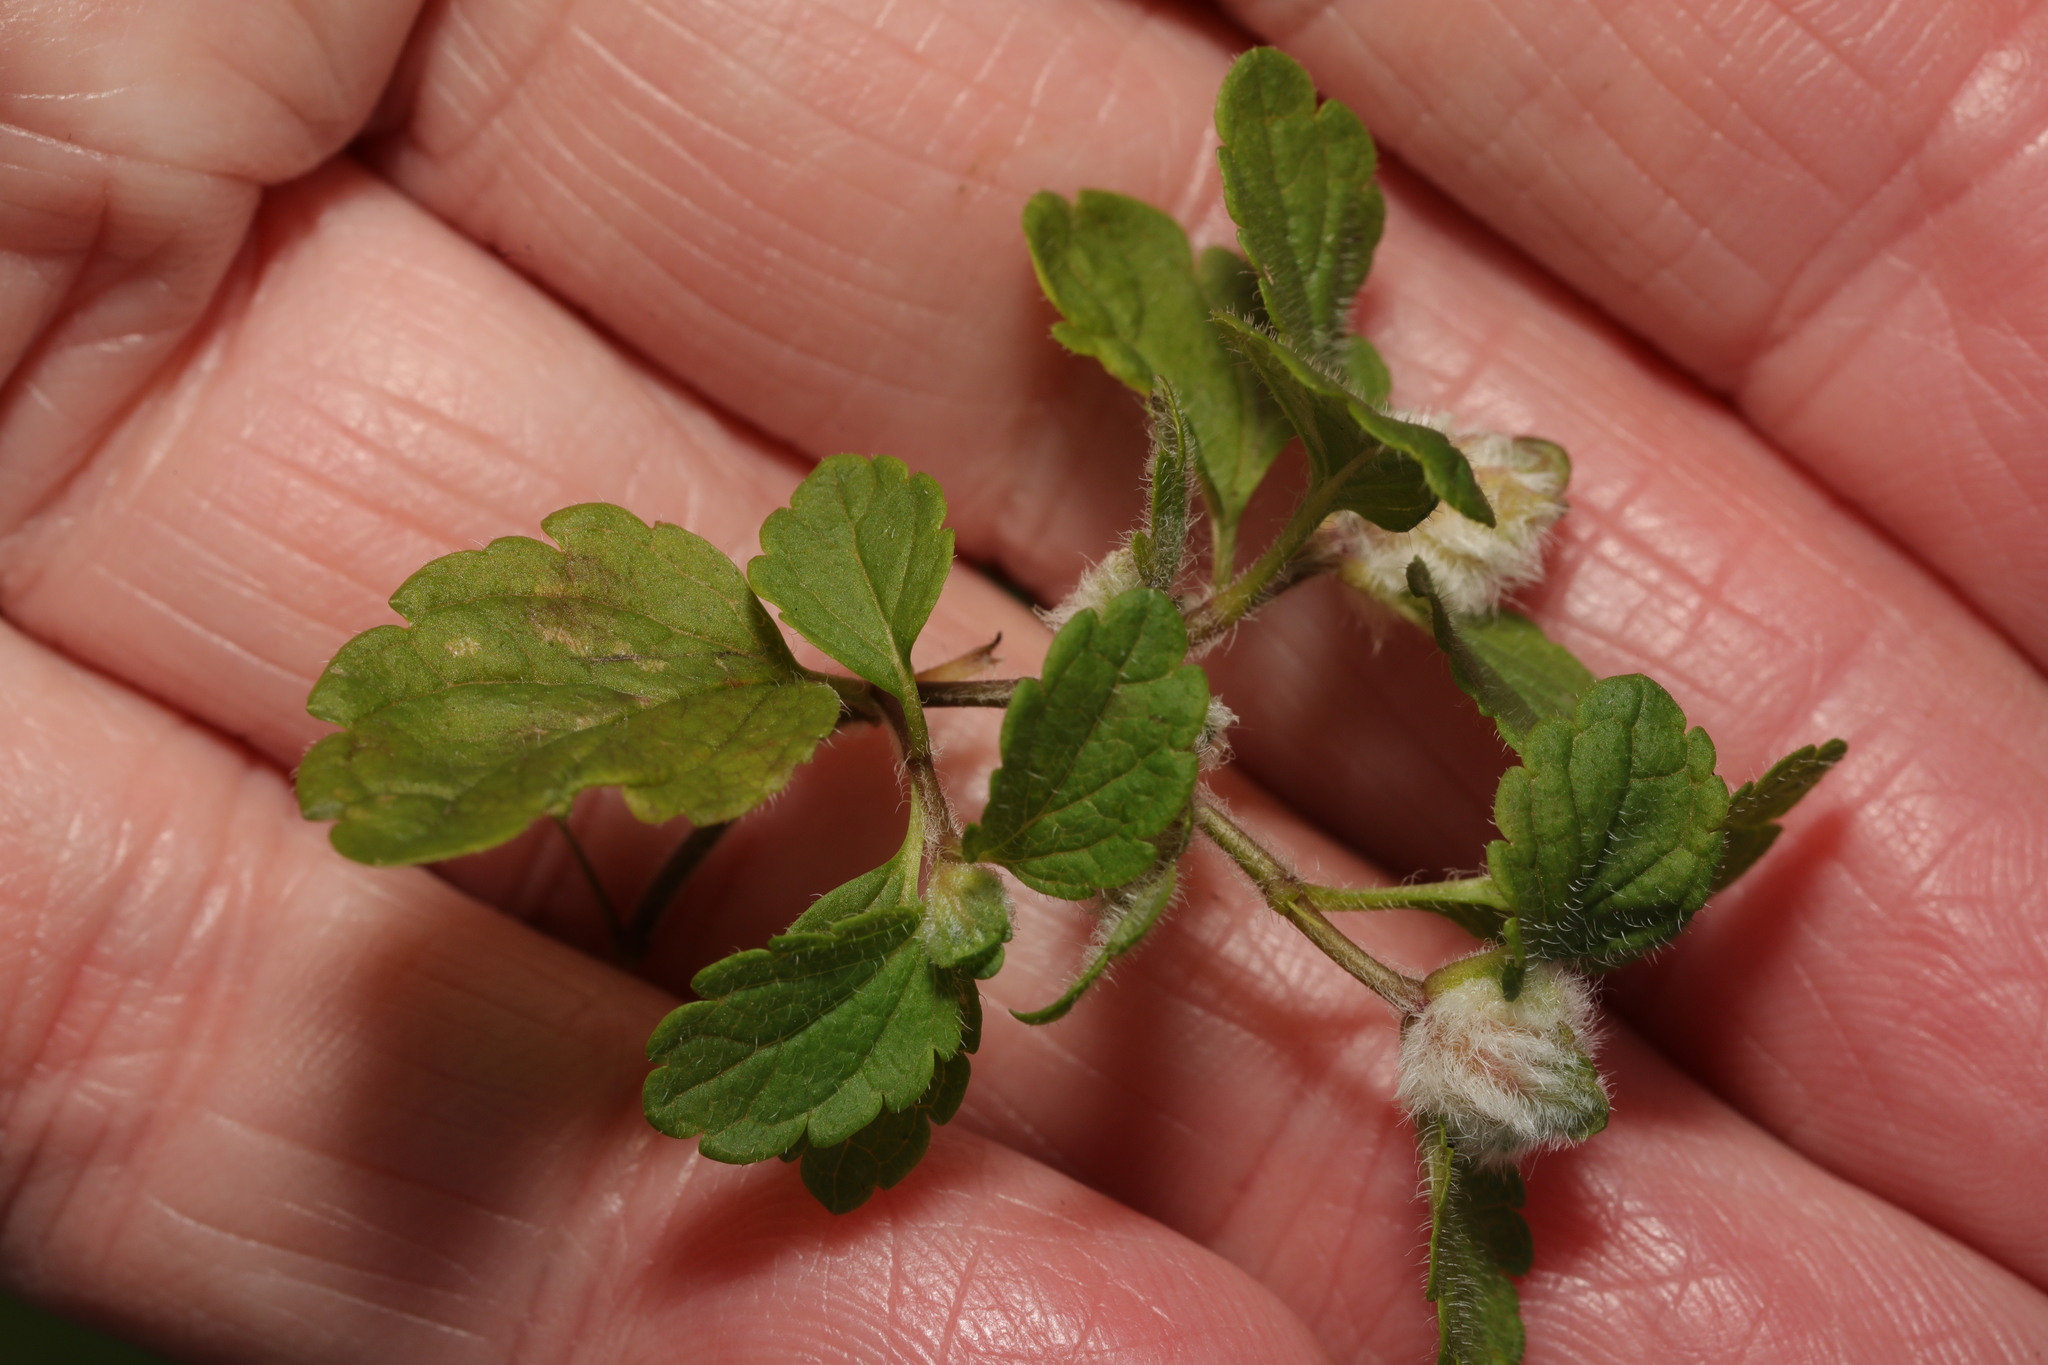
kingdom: Animalia
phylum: Arthropoda
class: Insecta
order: Diptera
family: Cecidomyiidae
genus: Jaapiella
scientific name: Jaapiella veronicae
